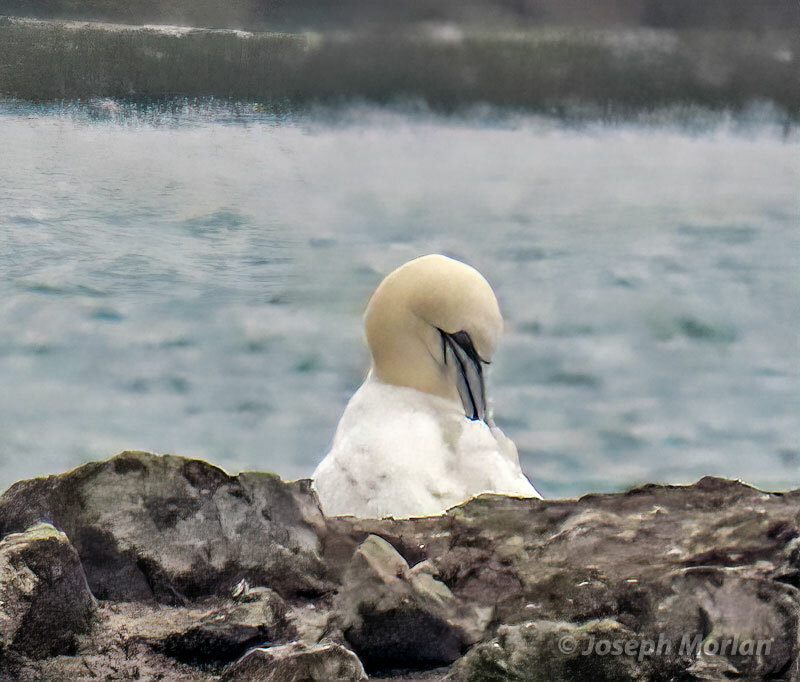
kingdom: Animalia
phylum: Chordata
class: Aves
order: Suliformes
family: Sulidae
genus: Morus
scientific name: Morus bassanus
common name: Northern gannet
